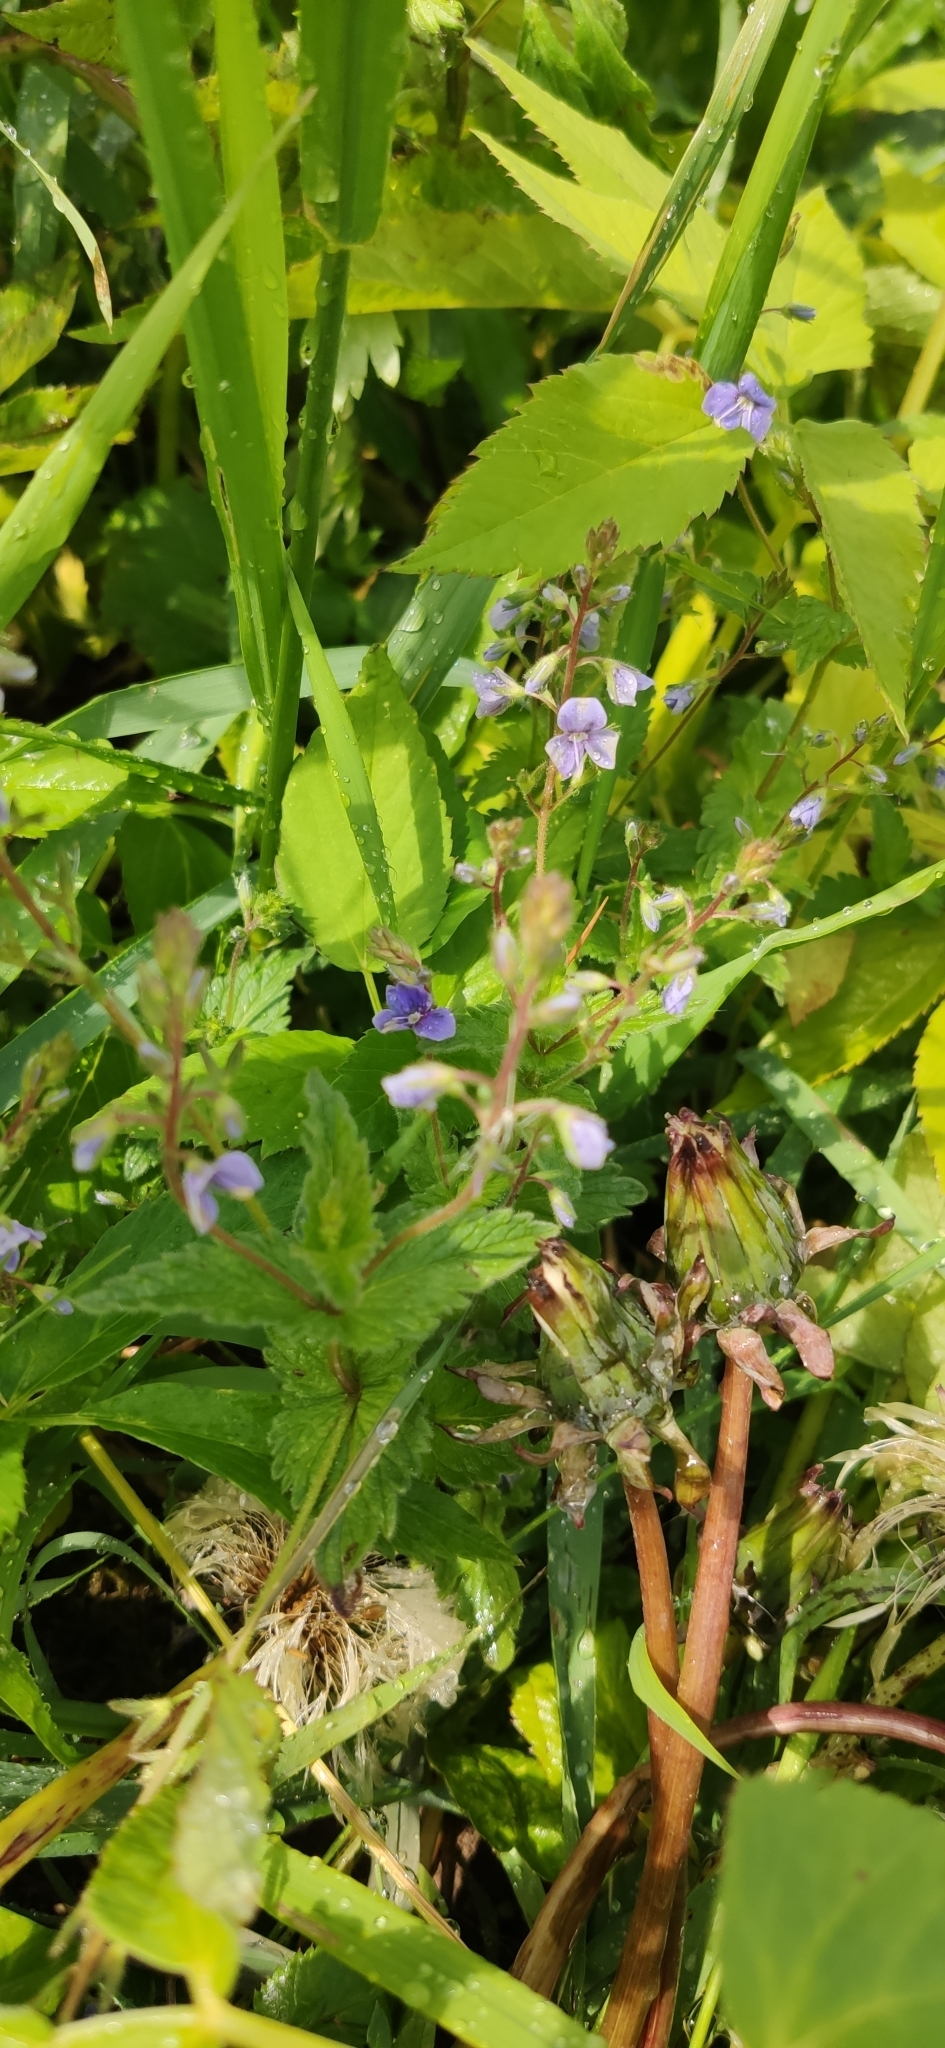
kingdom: Plantae
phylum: Tracheophyta
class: Magnoliopsida
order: Lamiales
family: Plantaginaceae
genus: Veronica
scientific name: Veronica chamaedrys
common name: Germander speedwell
